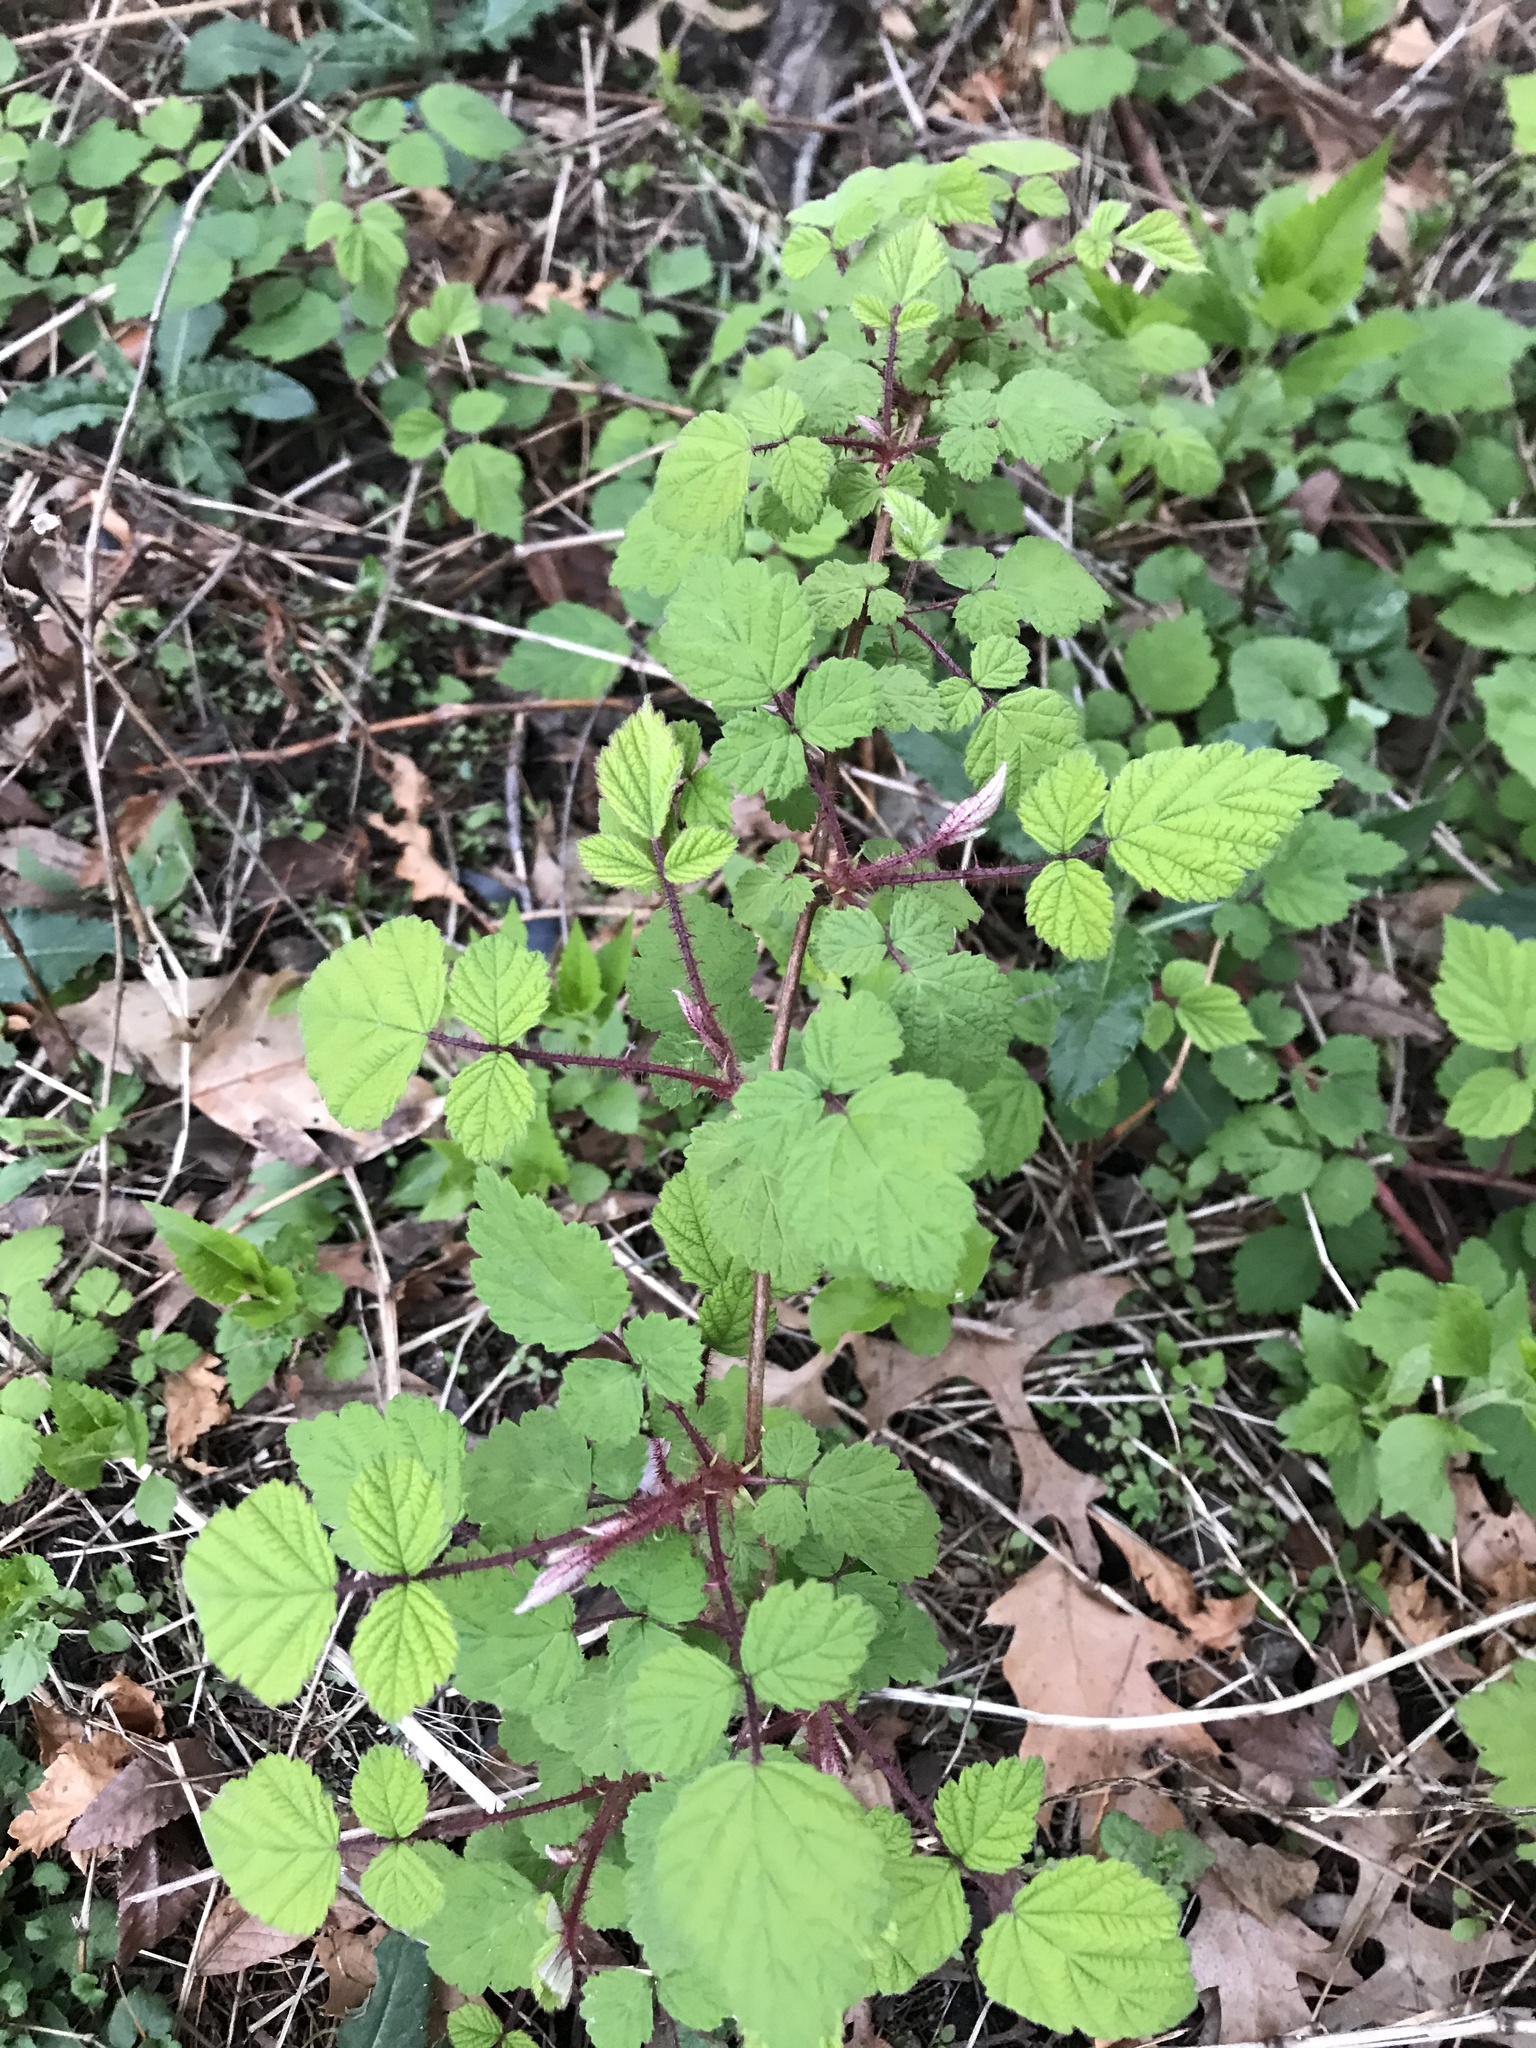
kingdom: Plantae
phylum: Tracheophyta
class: Magnoliopsida
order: Rosales
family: Rosaceae
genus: Rubus
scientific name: Rubus phoenicolasius
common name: Japanese wineberry
